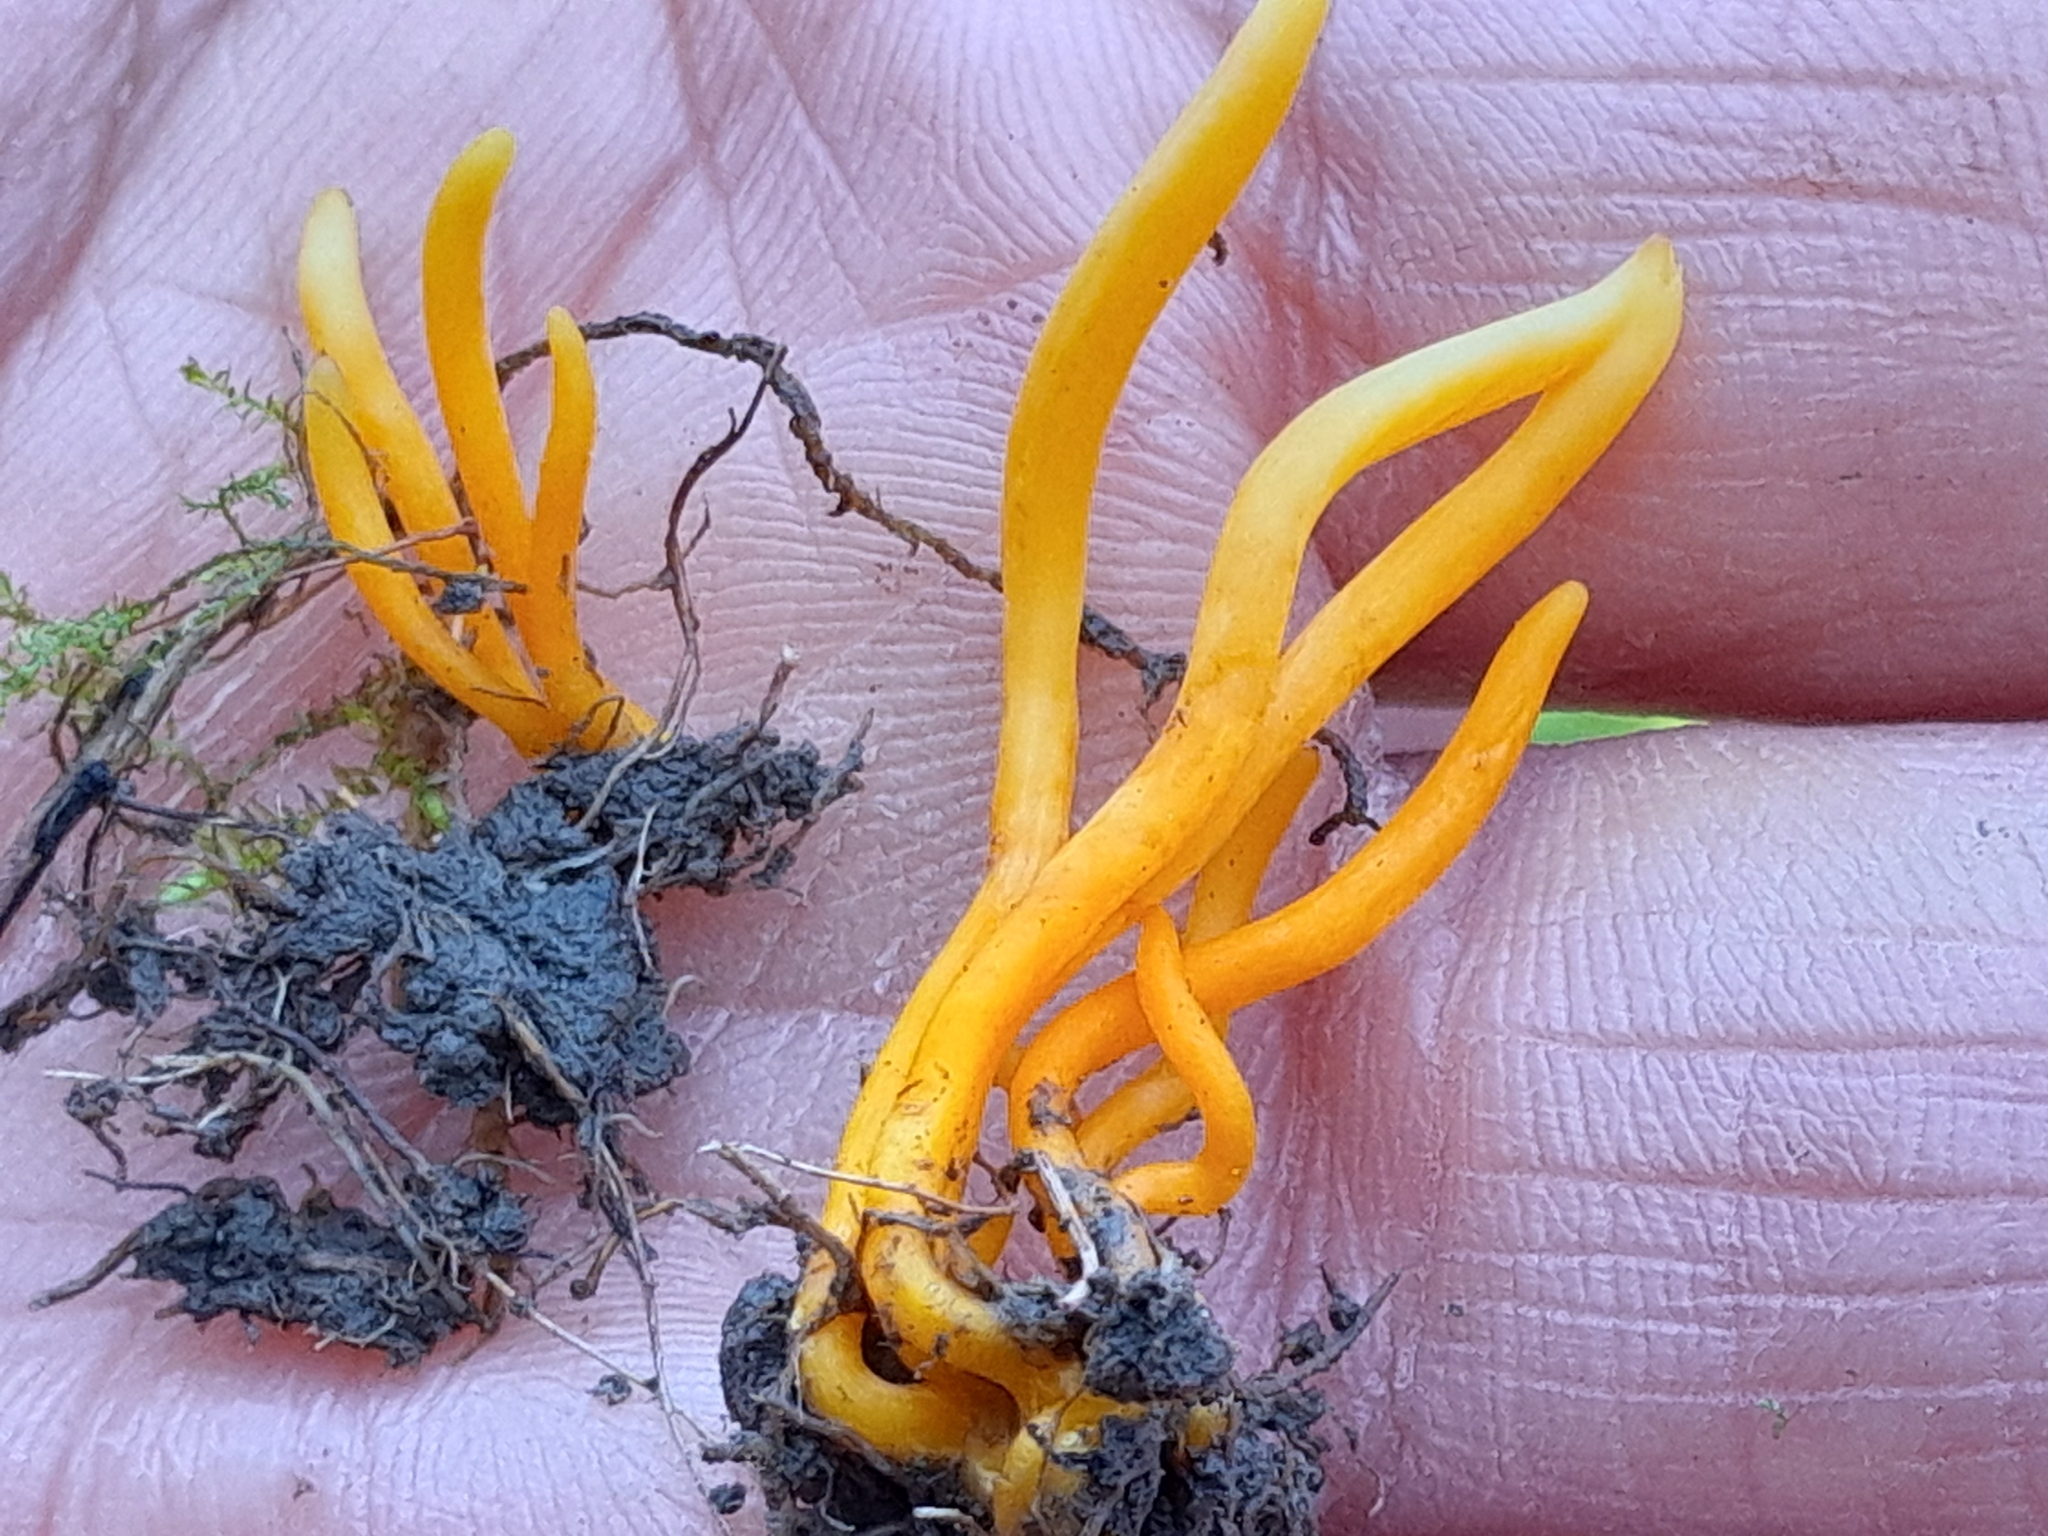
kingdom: Fungi
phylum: Basidiomycota
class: Agaricomycetes
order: Agaricales
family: Clavariaceae
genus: Clavulinopsis
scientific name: Clavulinopsis helvola
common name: Yellow club
